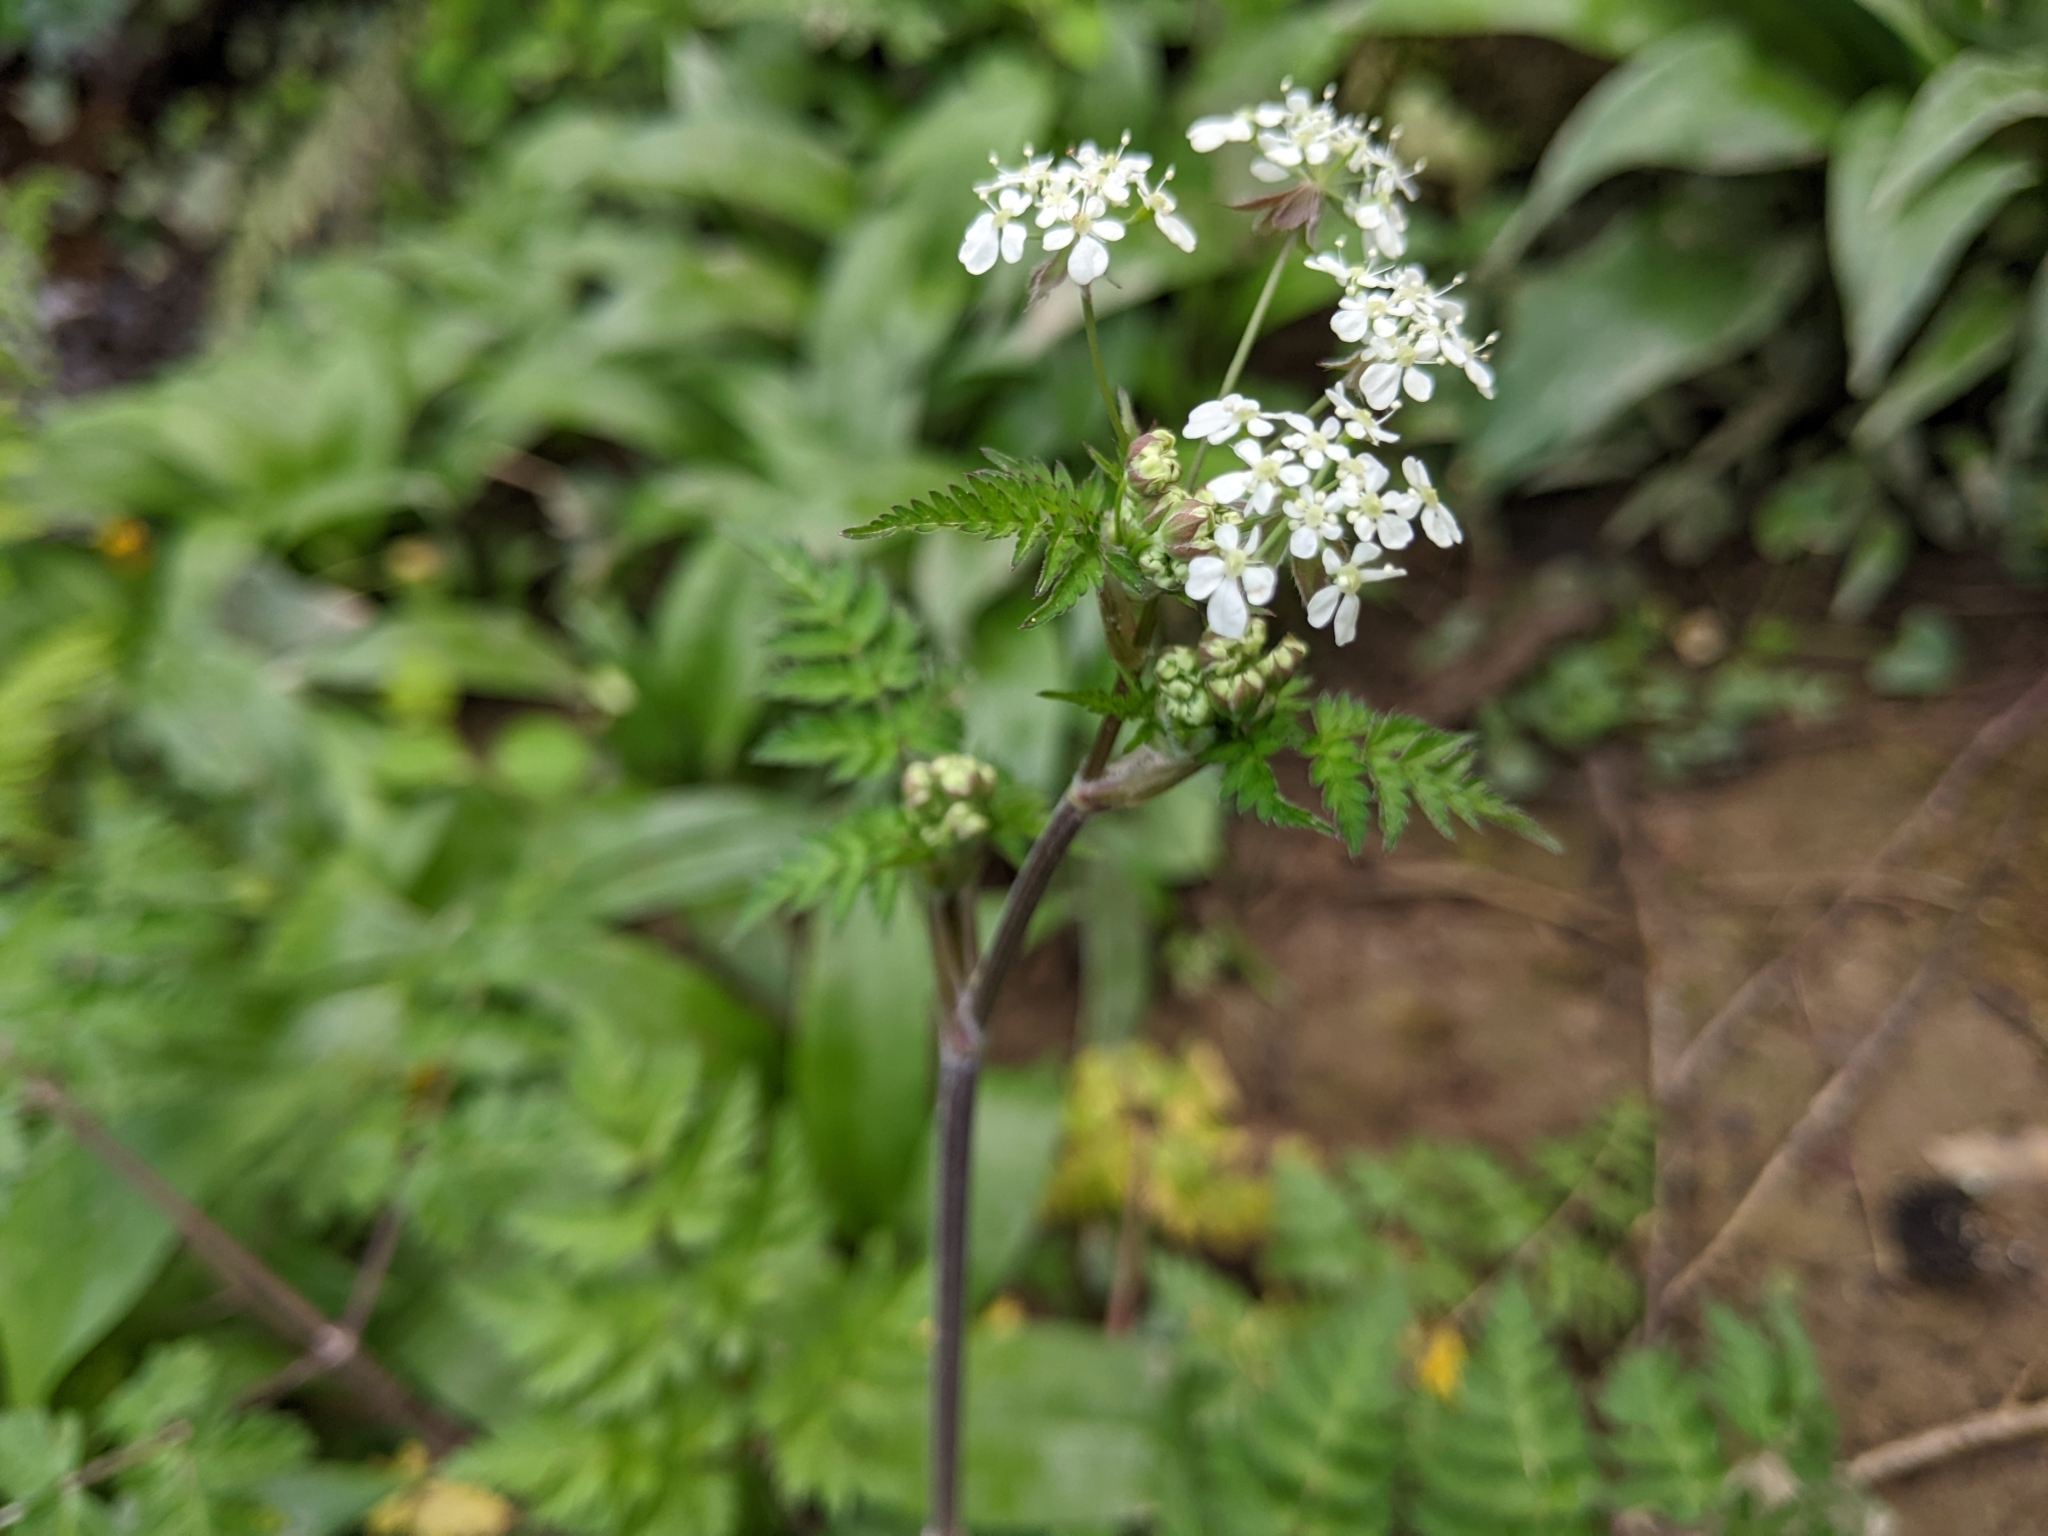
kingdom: Plantae
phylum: Tracheophyta
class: Magnoliopsida
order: Apiales
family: Apiaceae
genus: Anthriscus
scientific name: Anthriscus sylvestris
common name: Cow parsley
